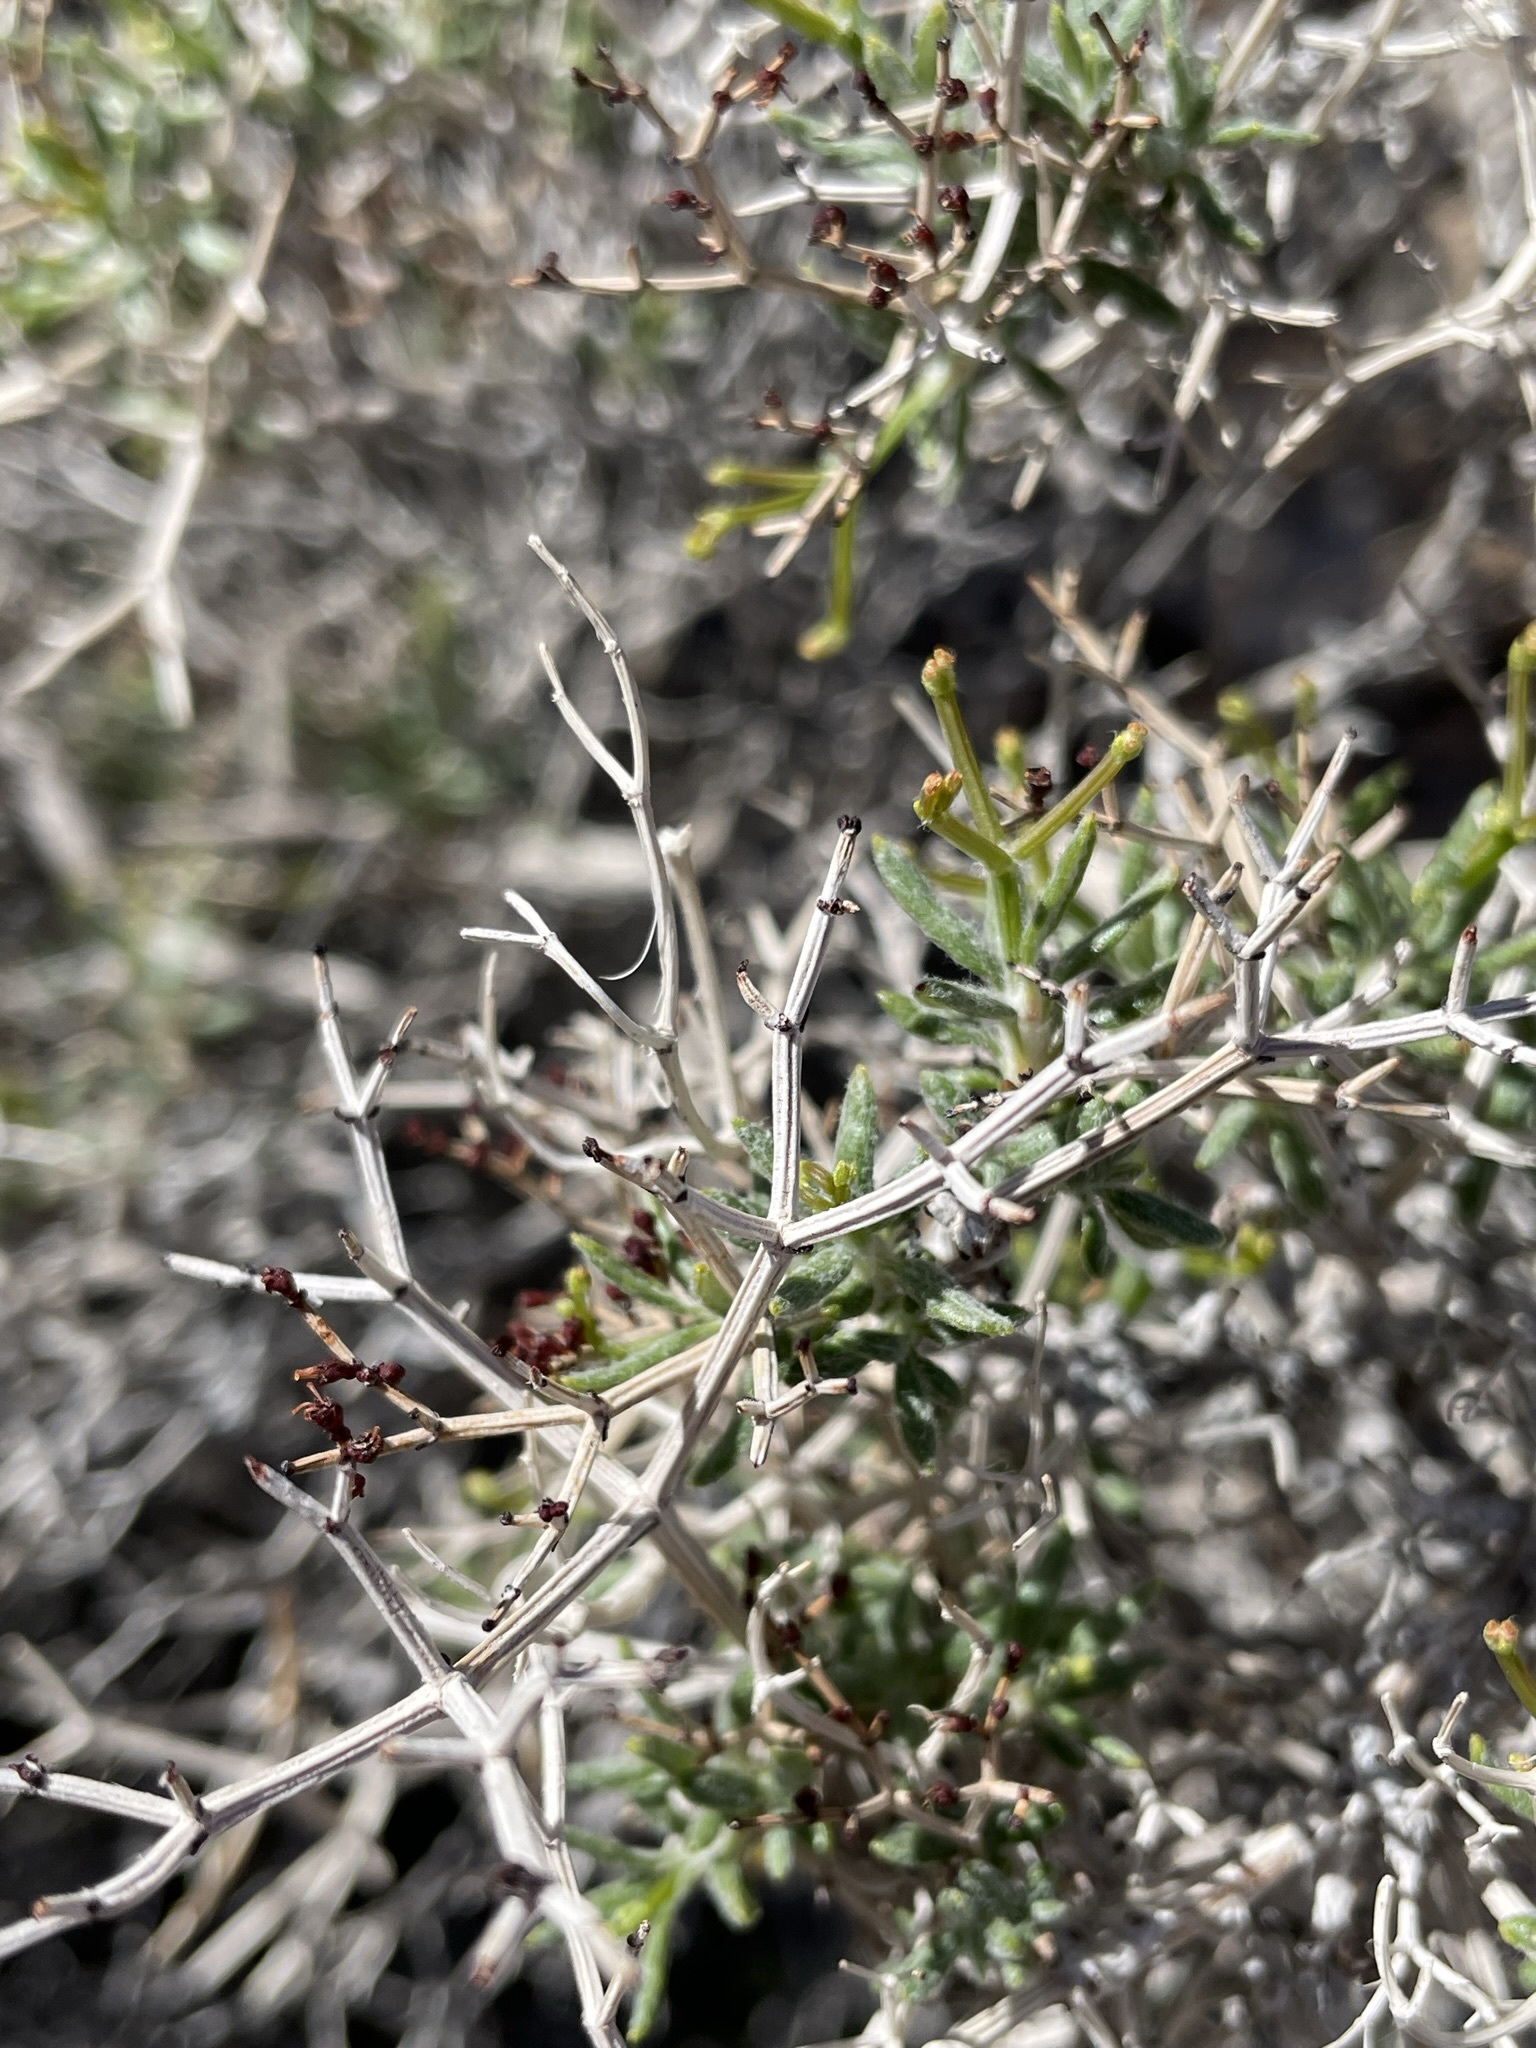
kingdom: Plantae
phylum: Tracheophyta
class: Magnoliopsida
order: Caryophyllales
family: Polygonaceae
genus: Eriogonum
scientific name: Eriogonum heermannii
